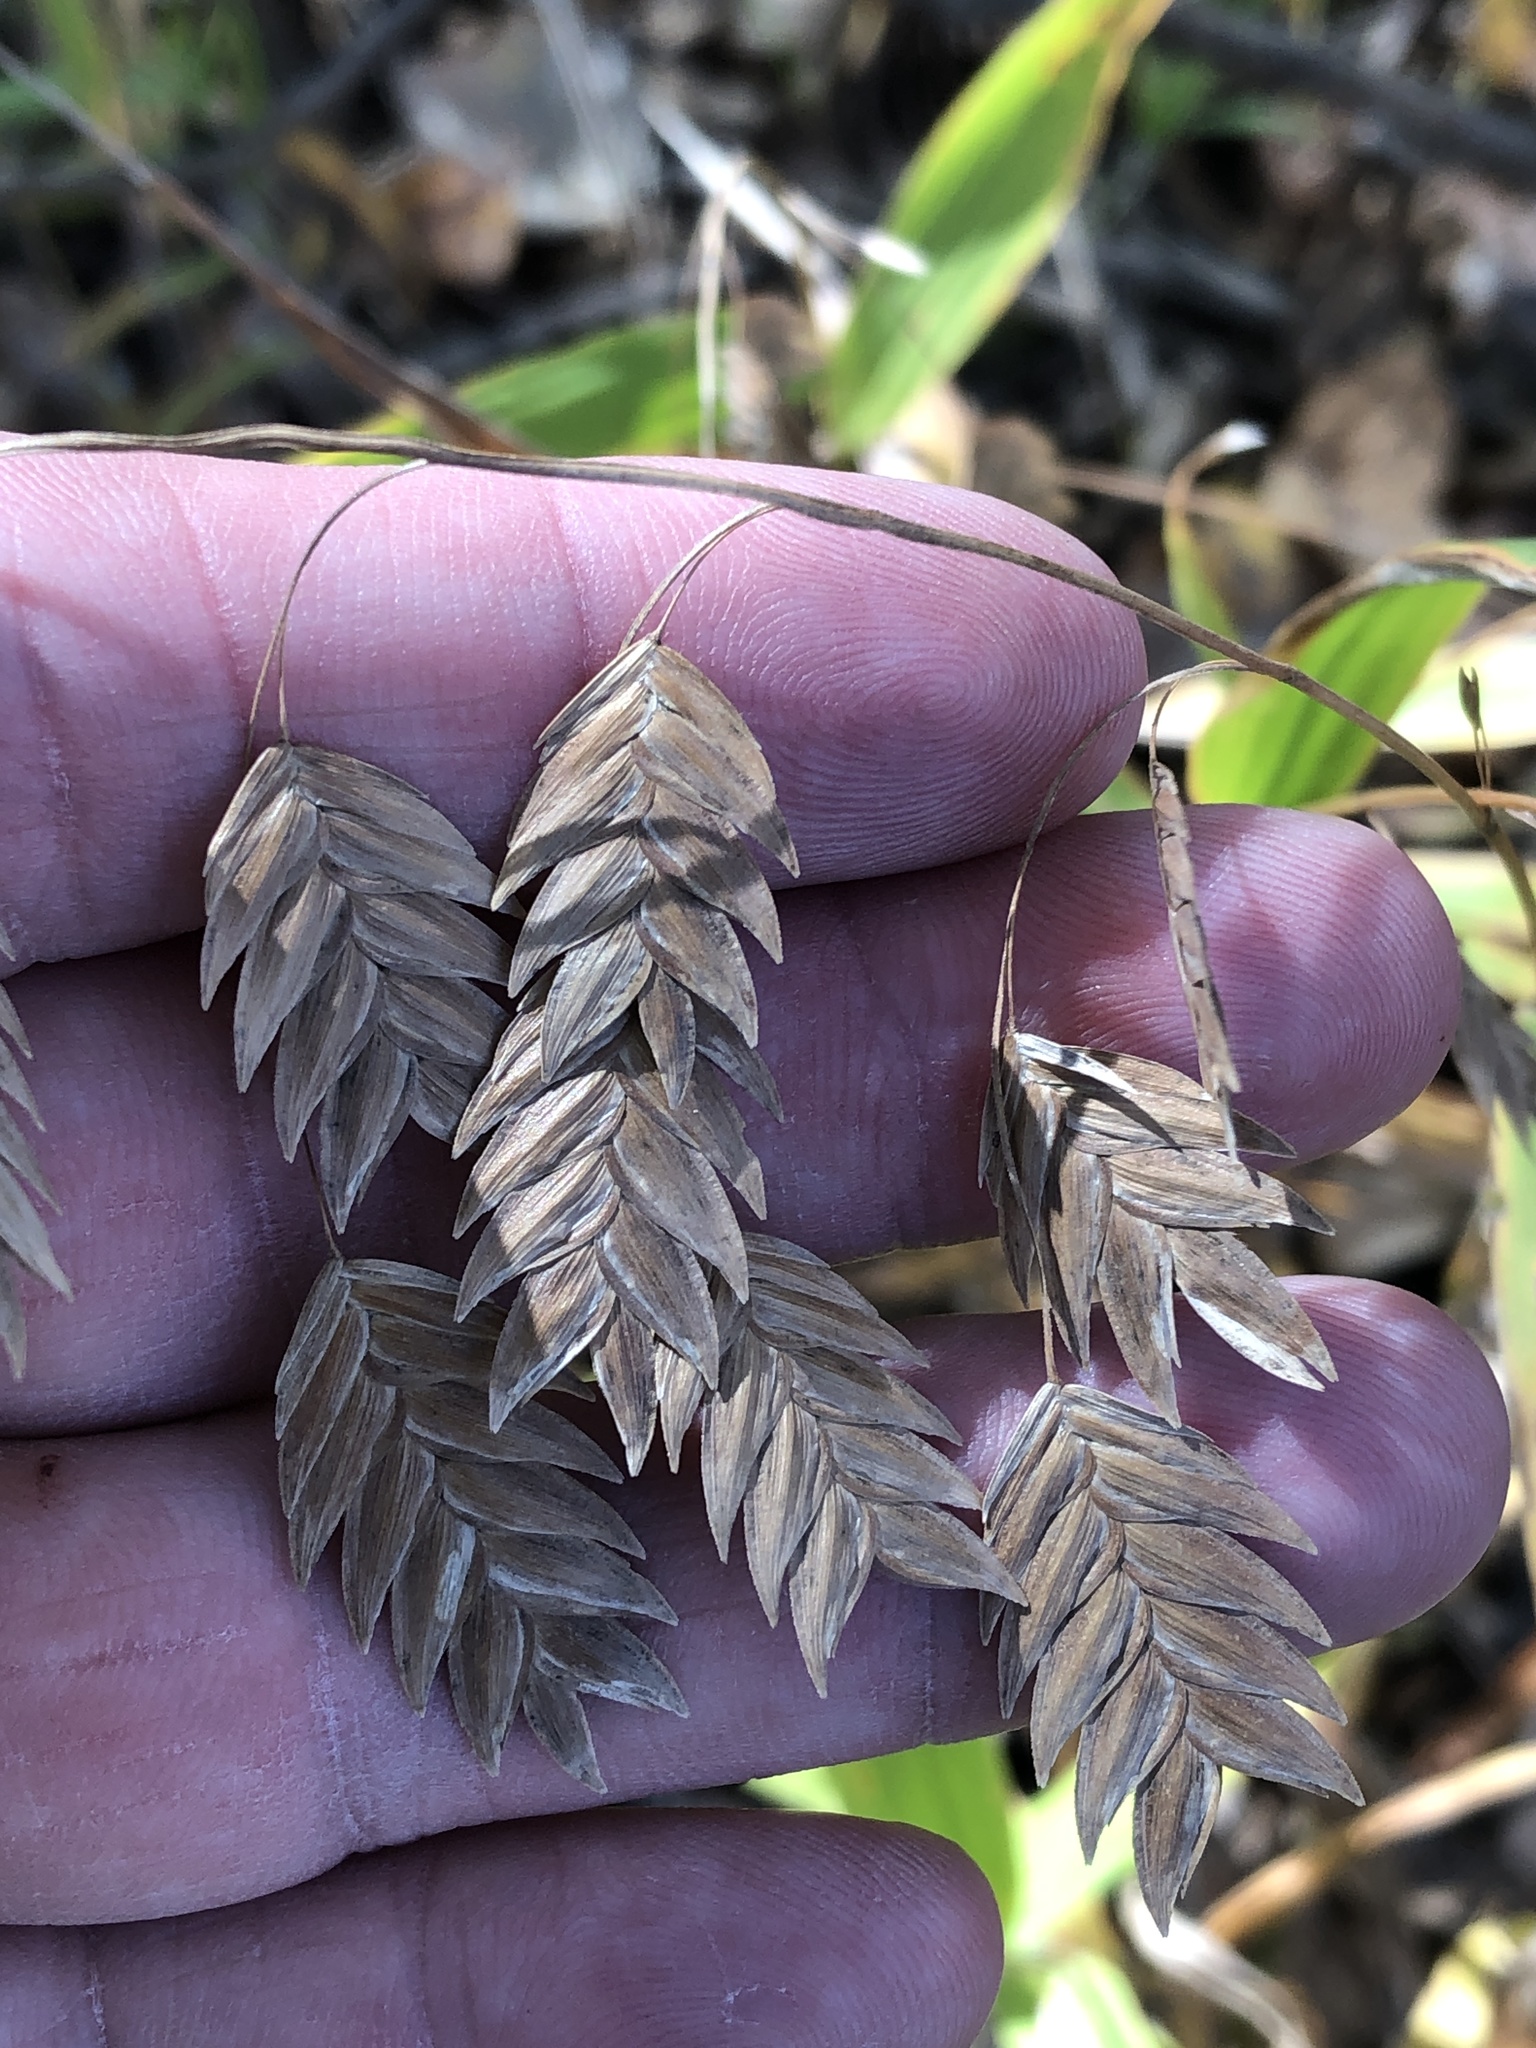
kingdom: Plantae
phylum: Tracheophyta
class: Liliopsida
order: Poales
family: Poaceae
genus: Chasmanthium
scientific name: Chasmanthium latifolium
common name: Broad-leaved chasmanthium
